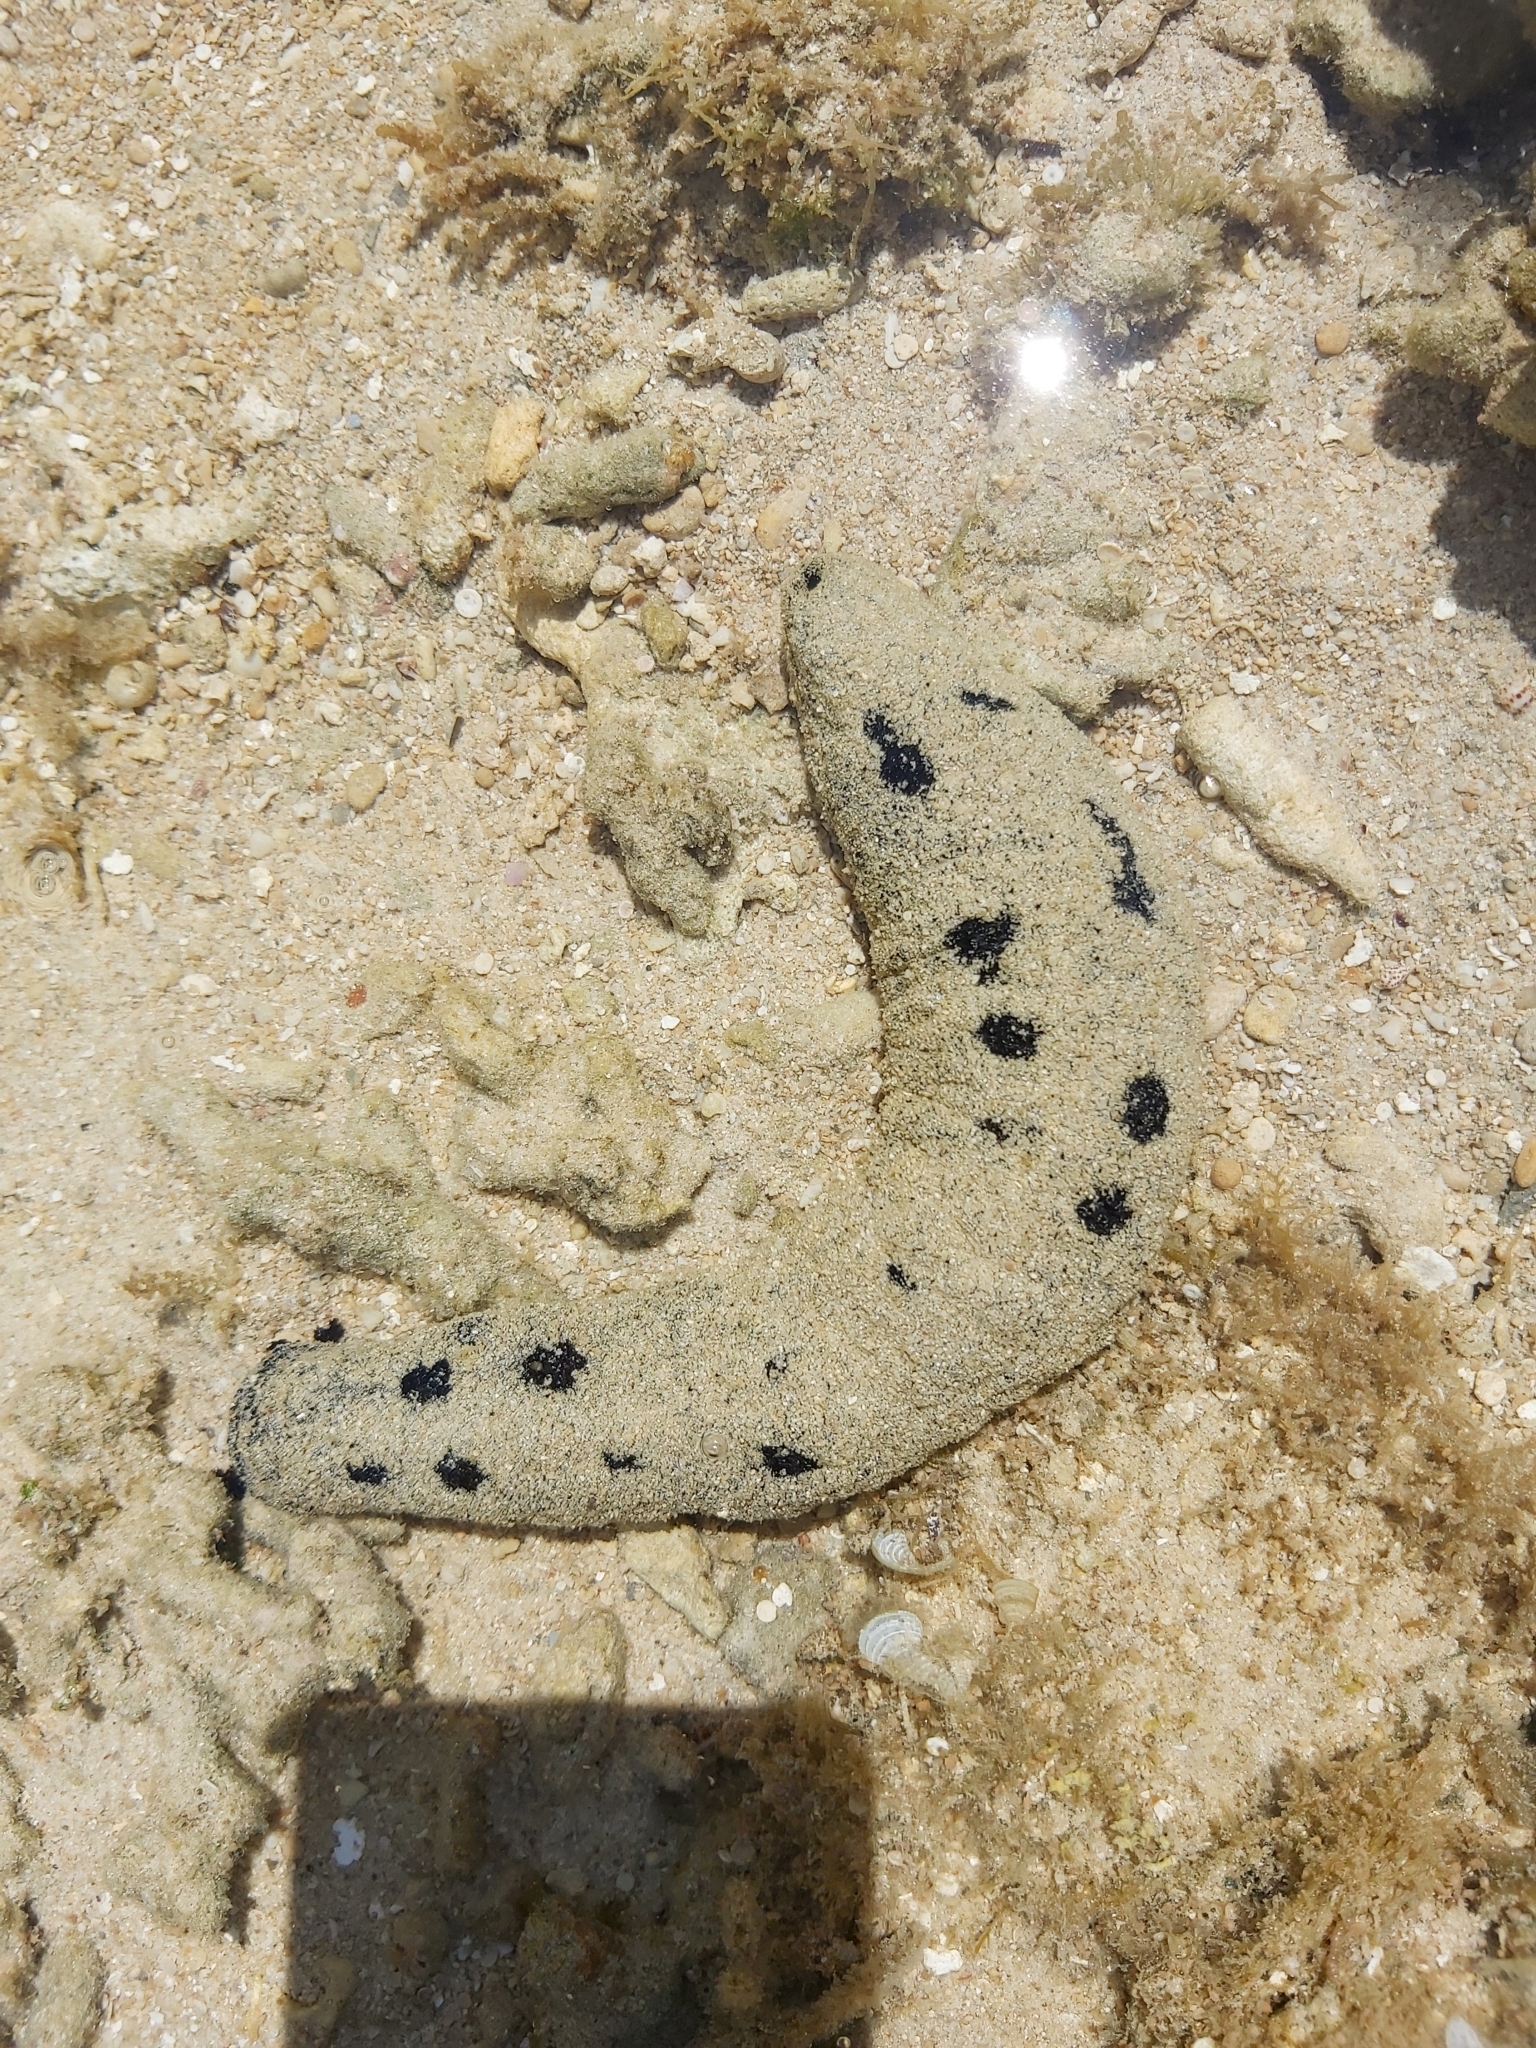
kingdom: Animalia
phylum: Echinodermata
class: Holothuroidea
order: Holothuriida
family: Holothuriidae
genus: Holothuria
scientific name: Holothuria atra
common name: Lollyfish
